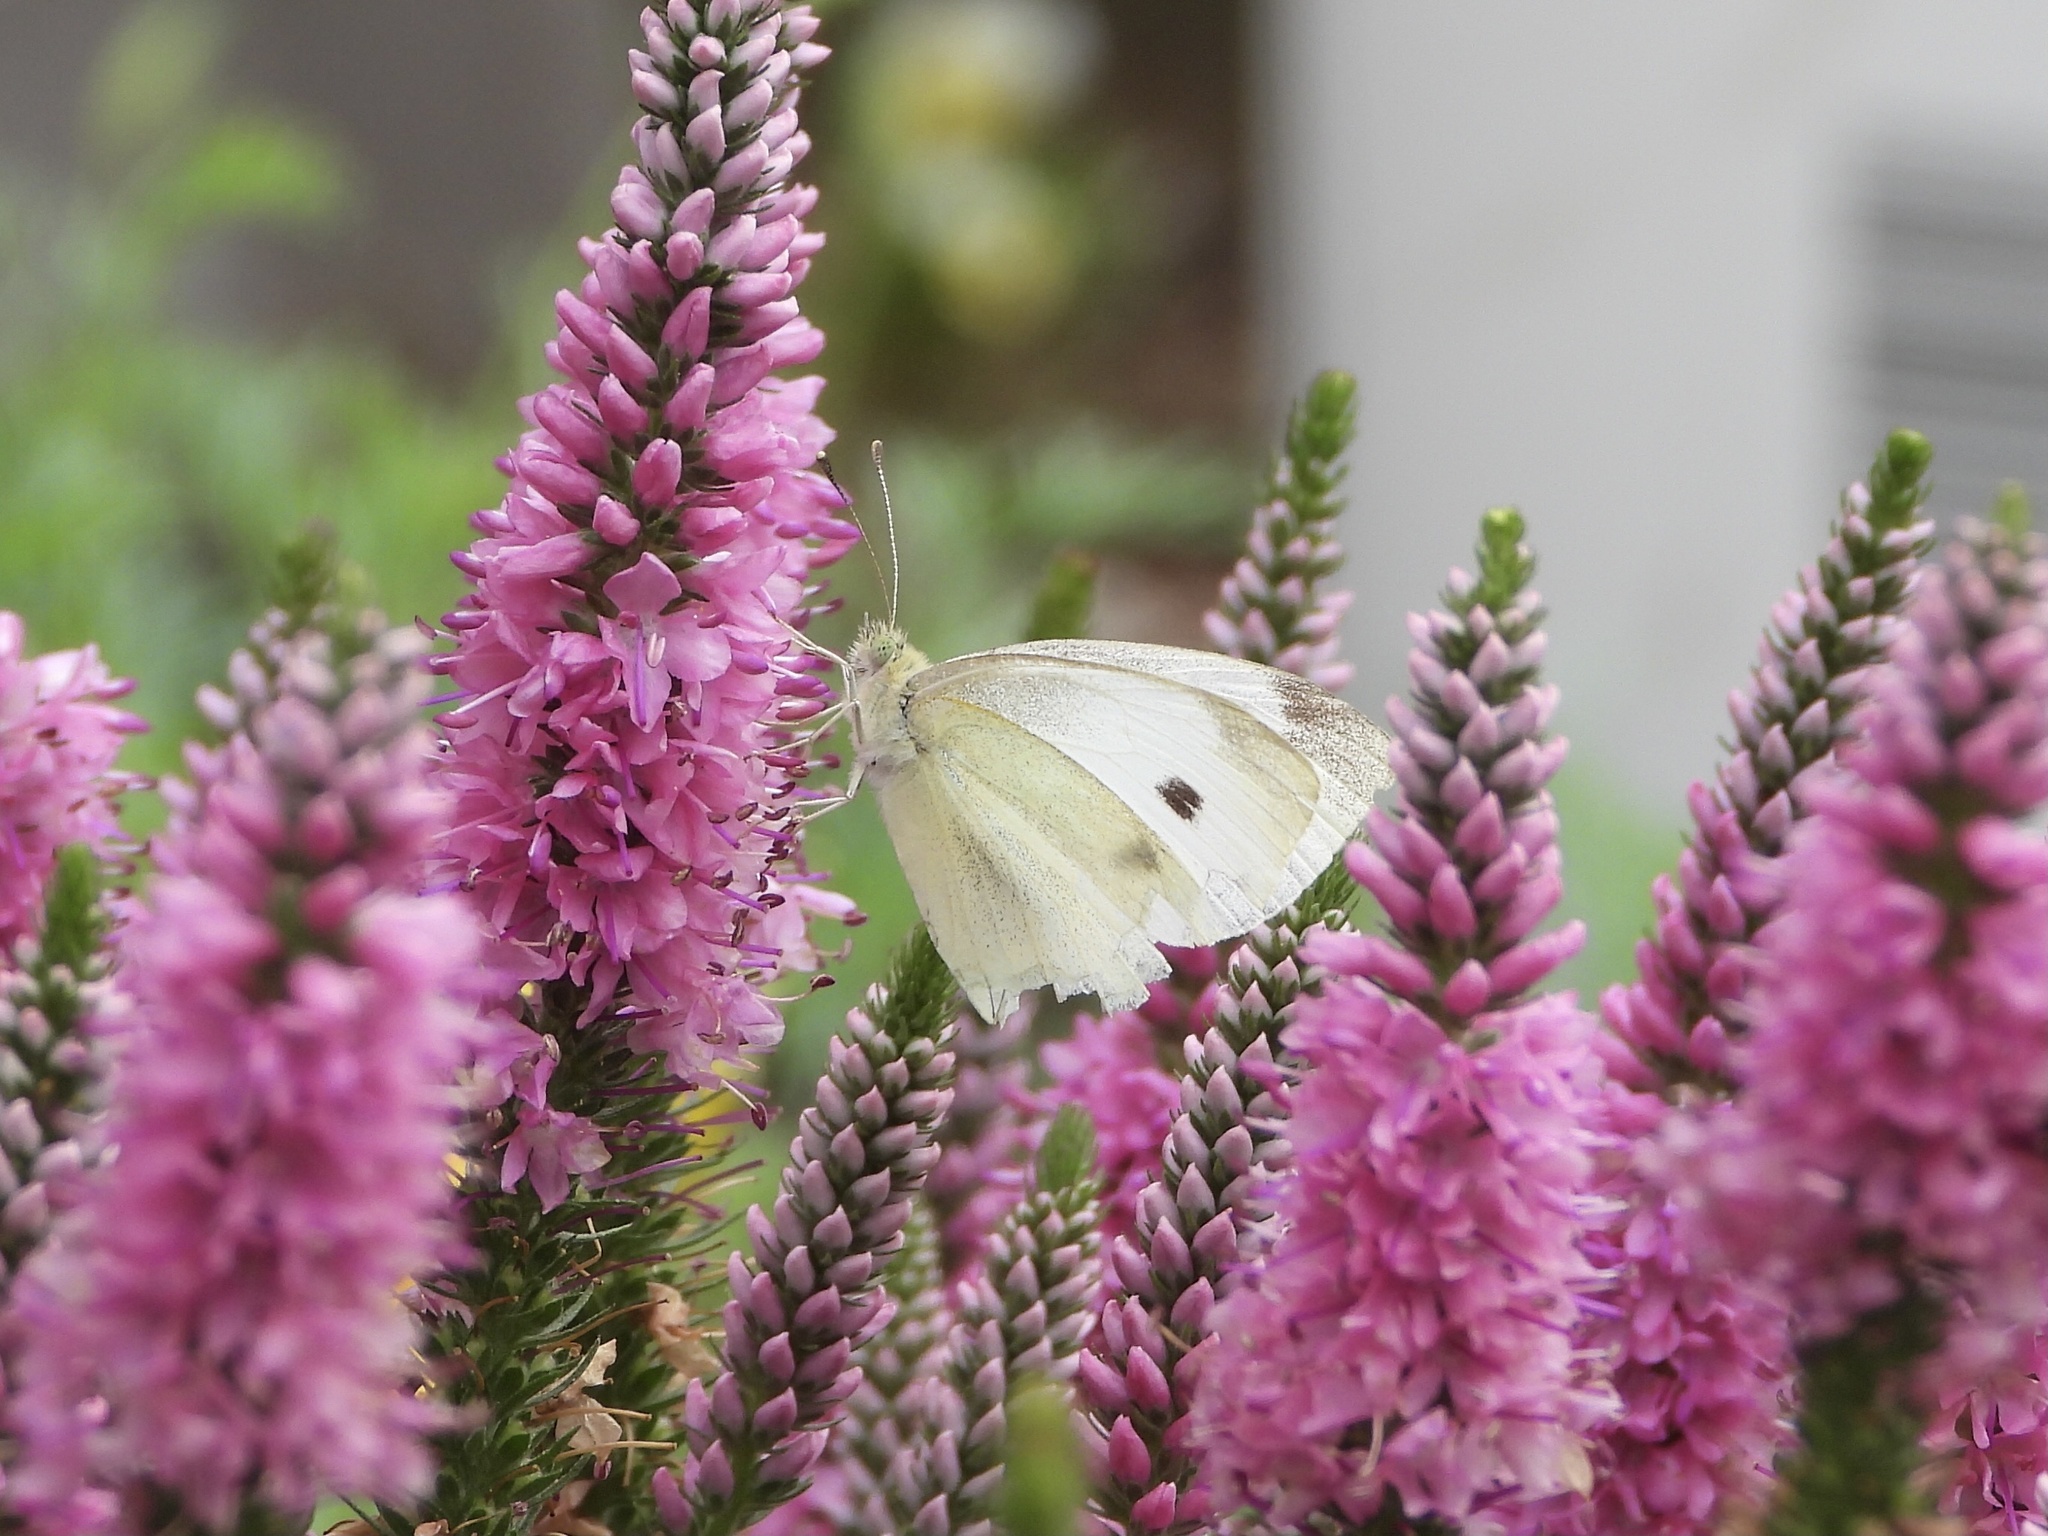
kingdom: Animalia
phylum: Arthropoda
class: Insecta
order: Lepidoptera
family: Pieridae
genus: Pieris
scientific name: Pieris rapae
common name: Small white
